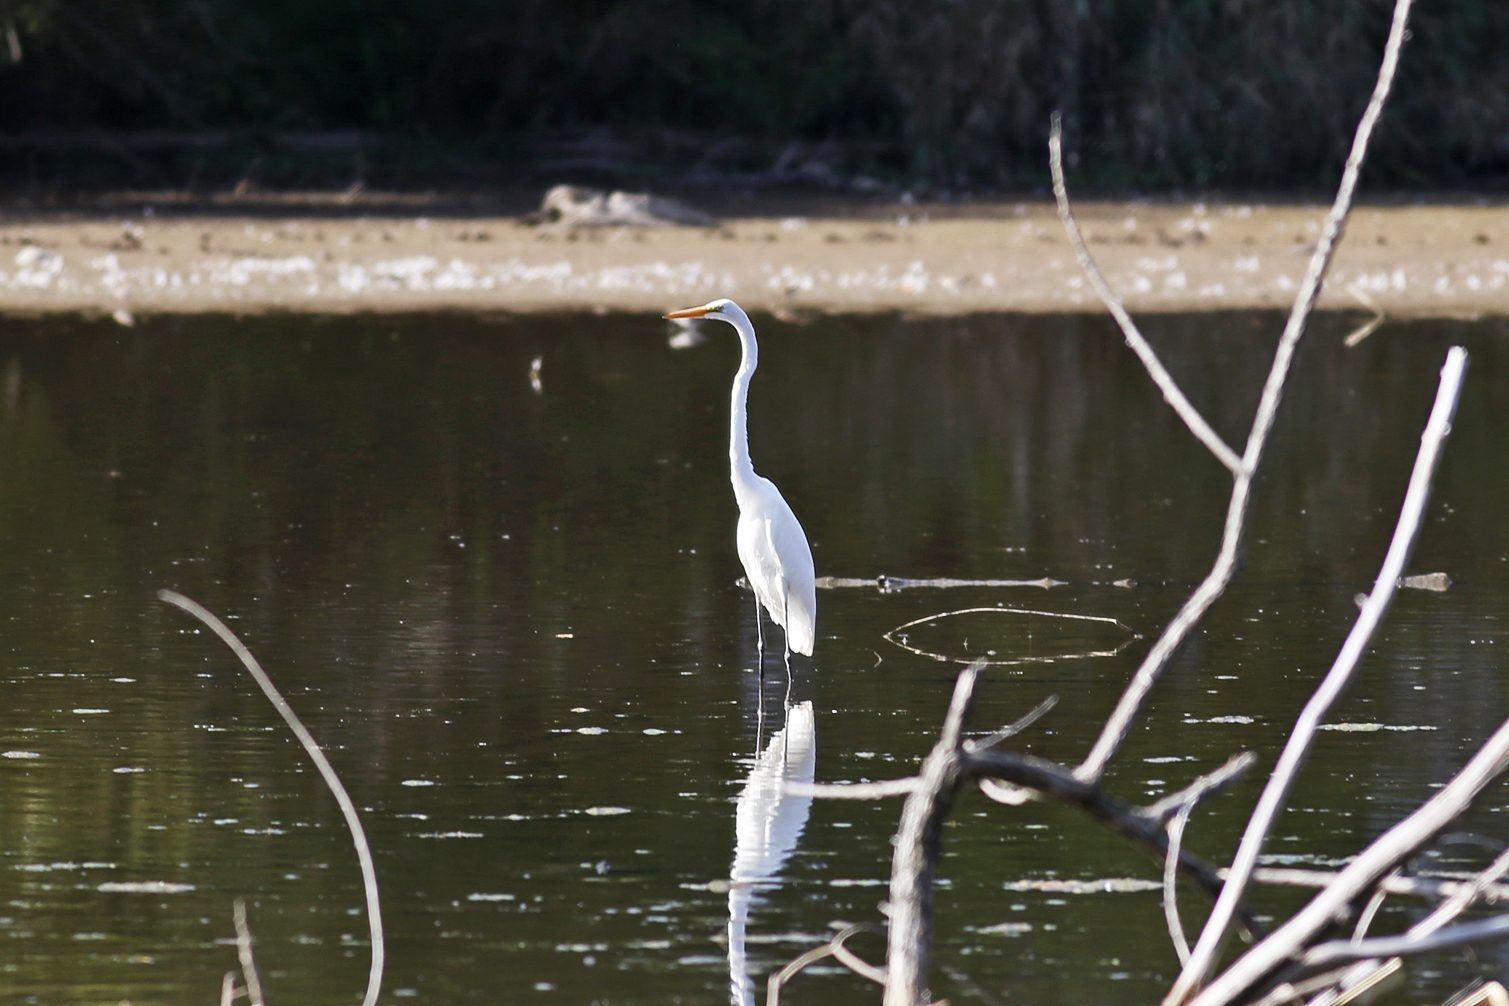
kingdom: Animalia
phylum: Chordata
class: Aves
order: Pelecaniformes
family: Ardeidae
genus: Ardea
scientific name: Ardea alba
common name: Great egret
